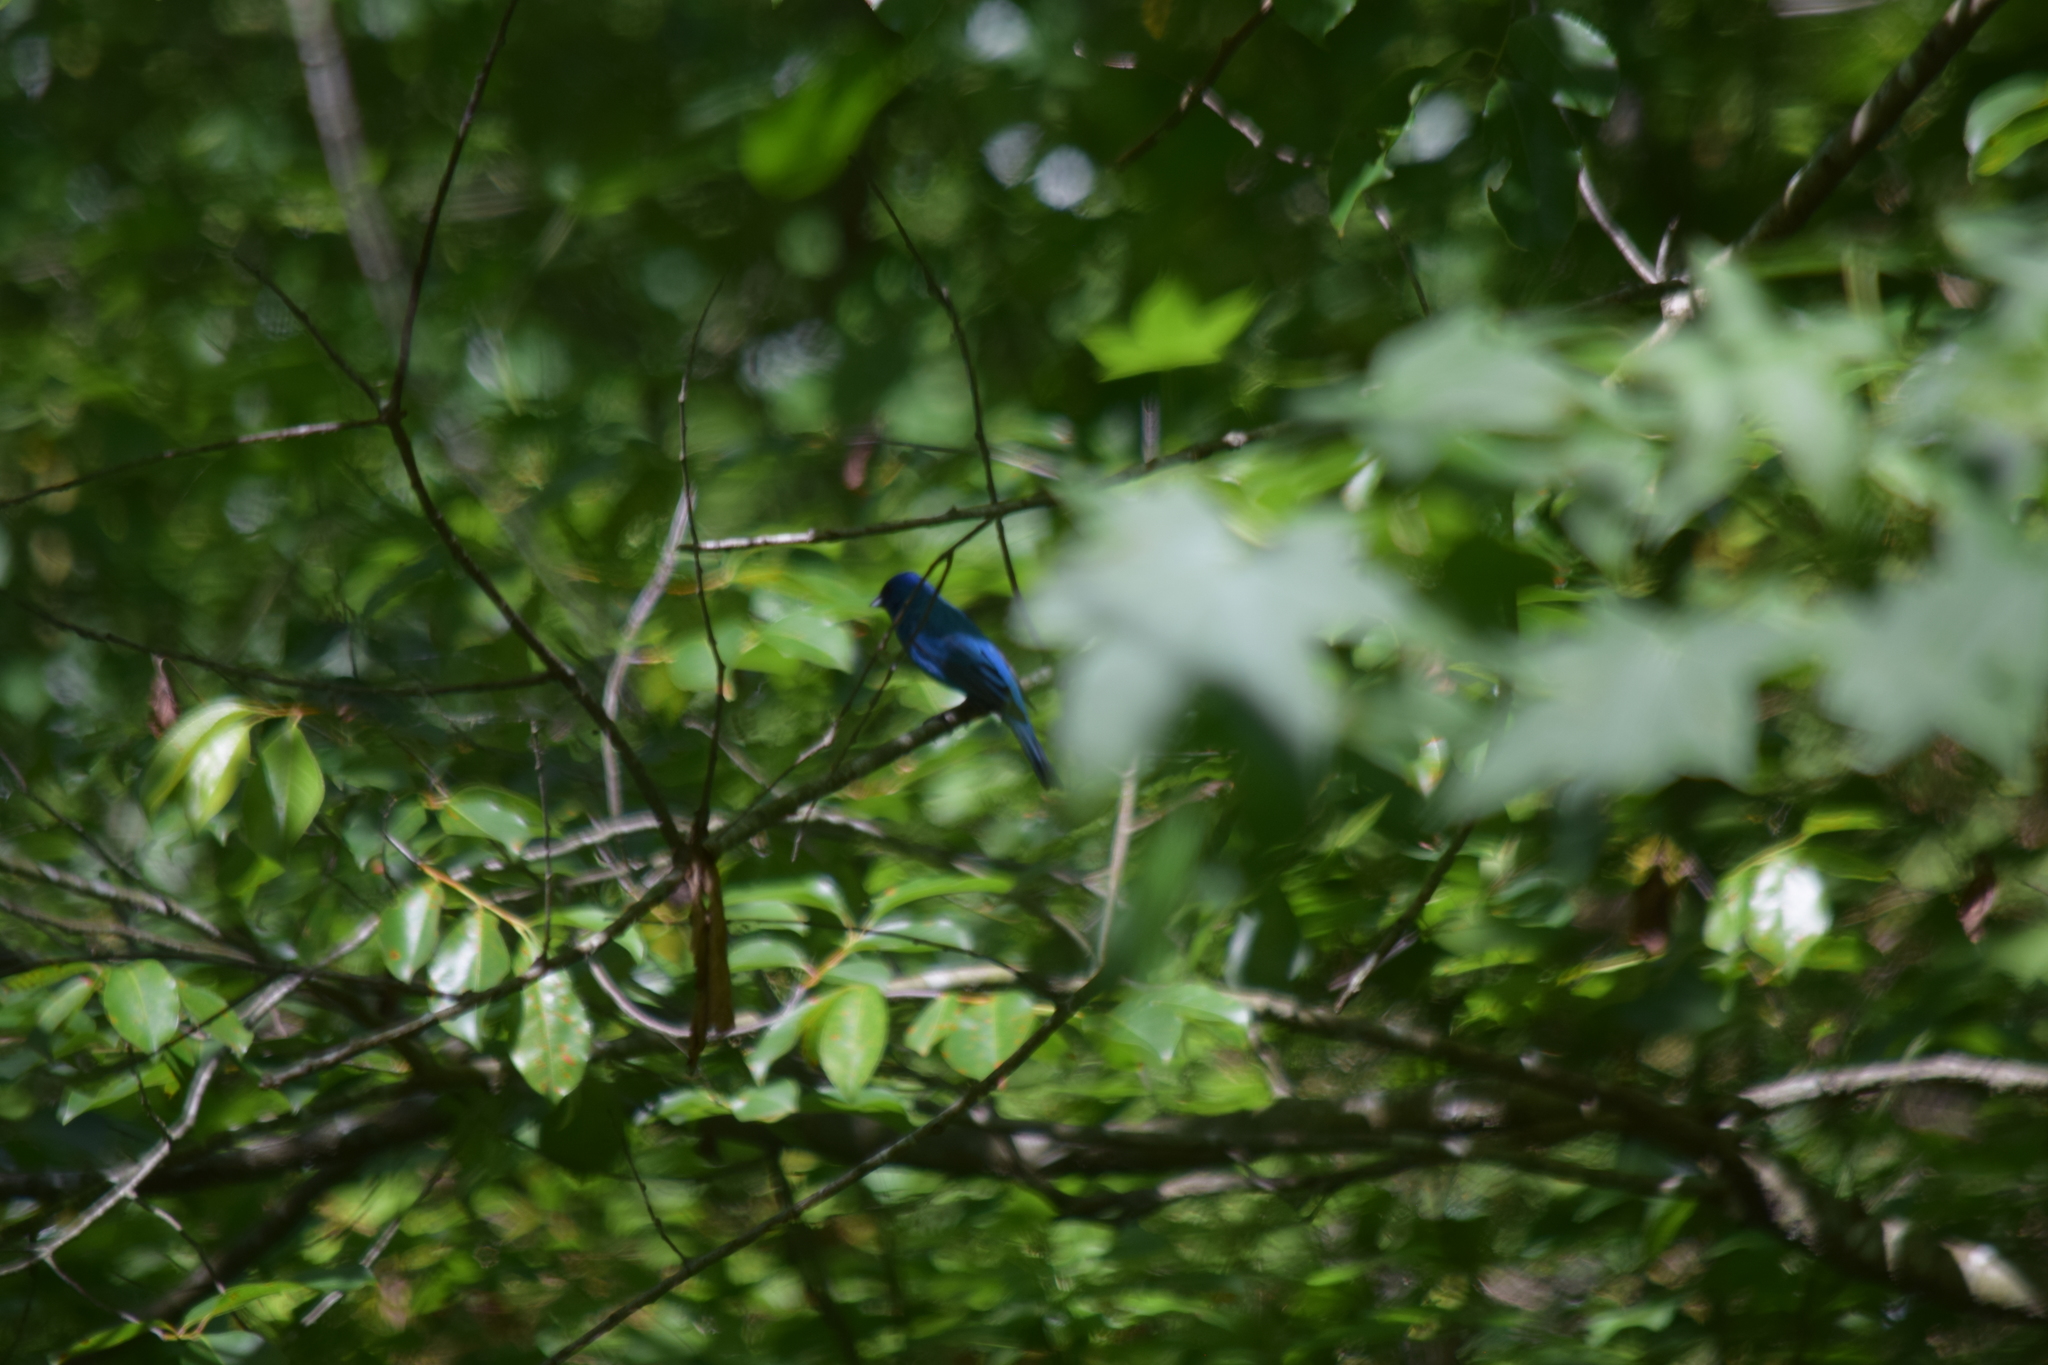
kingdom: Animalia
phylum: Chordata
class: Aves
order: Passeriformes
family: Cardinalidae
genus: Passerina
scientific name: Passerina cyanea
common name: Indigo bunting
